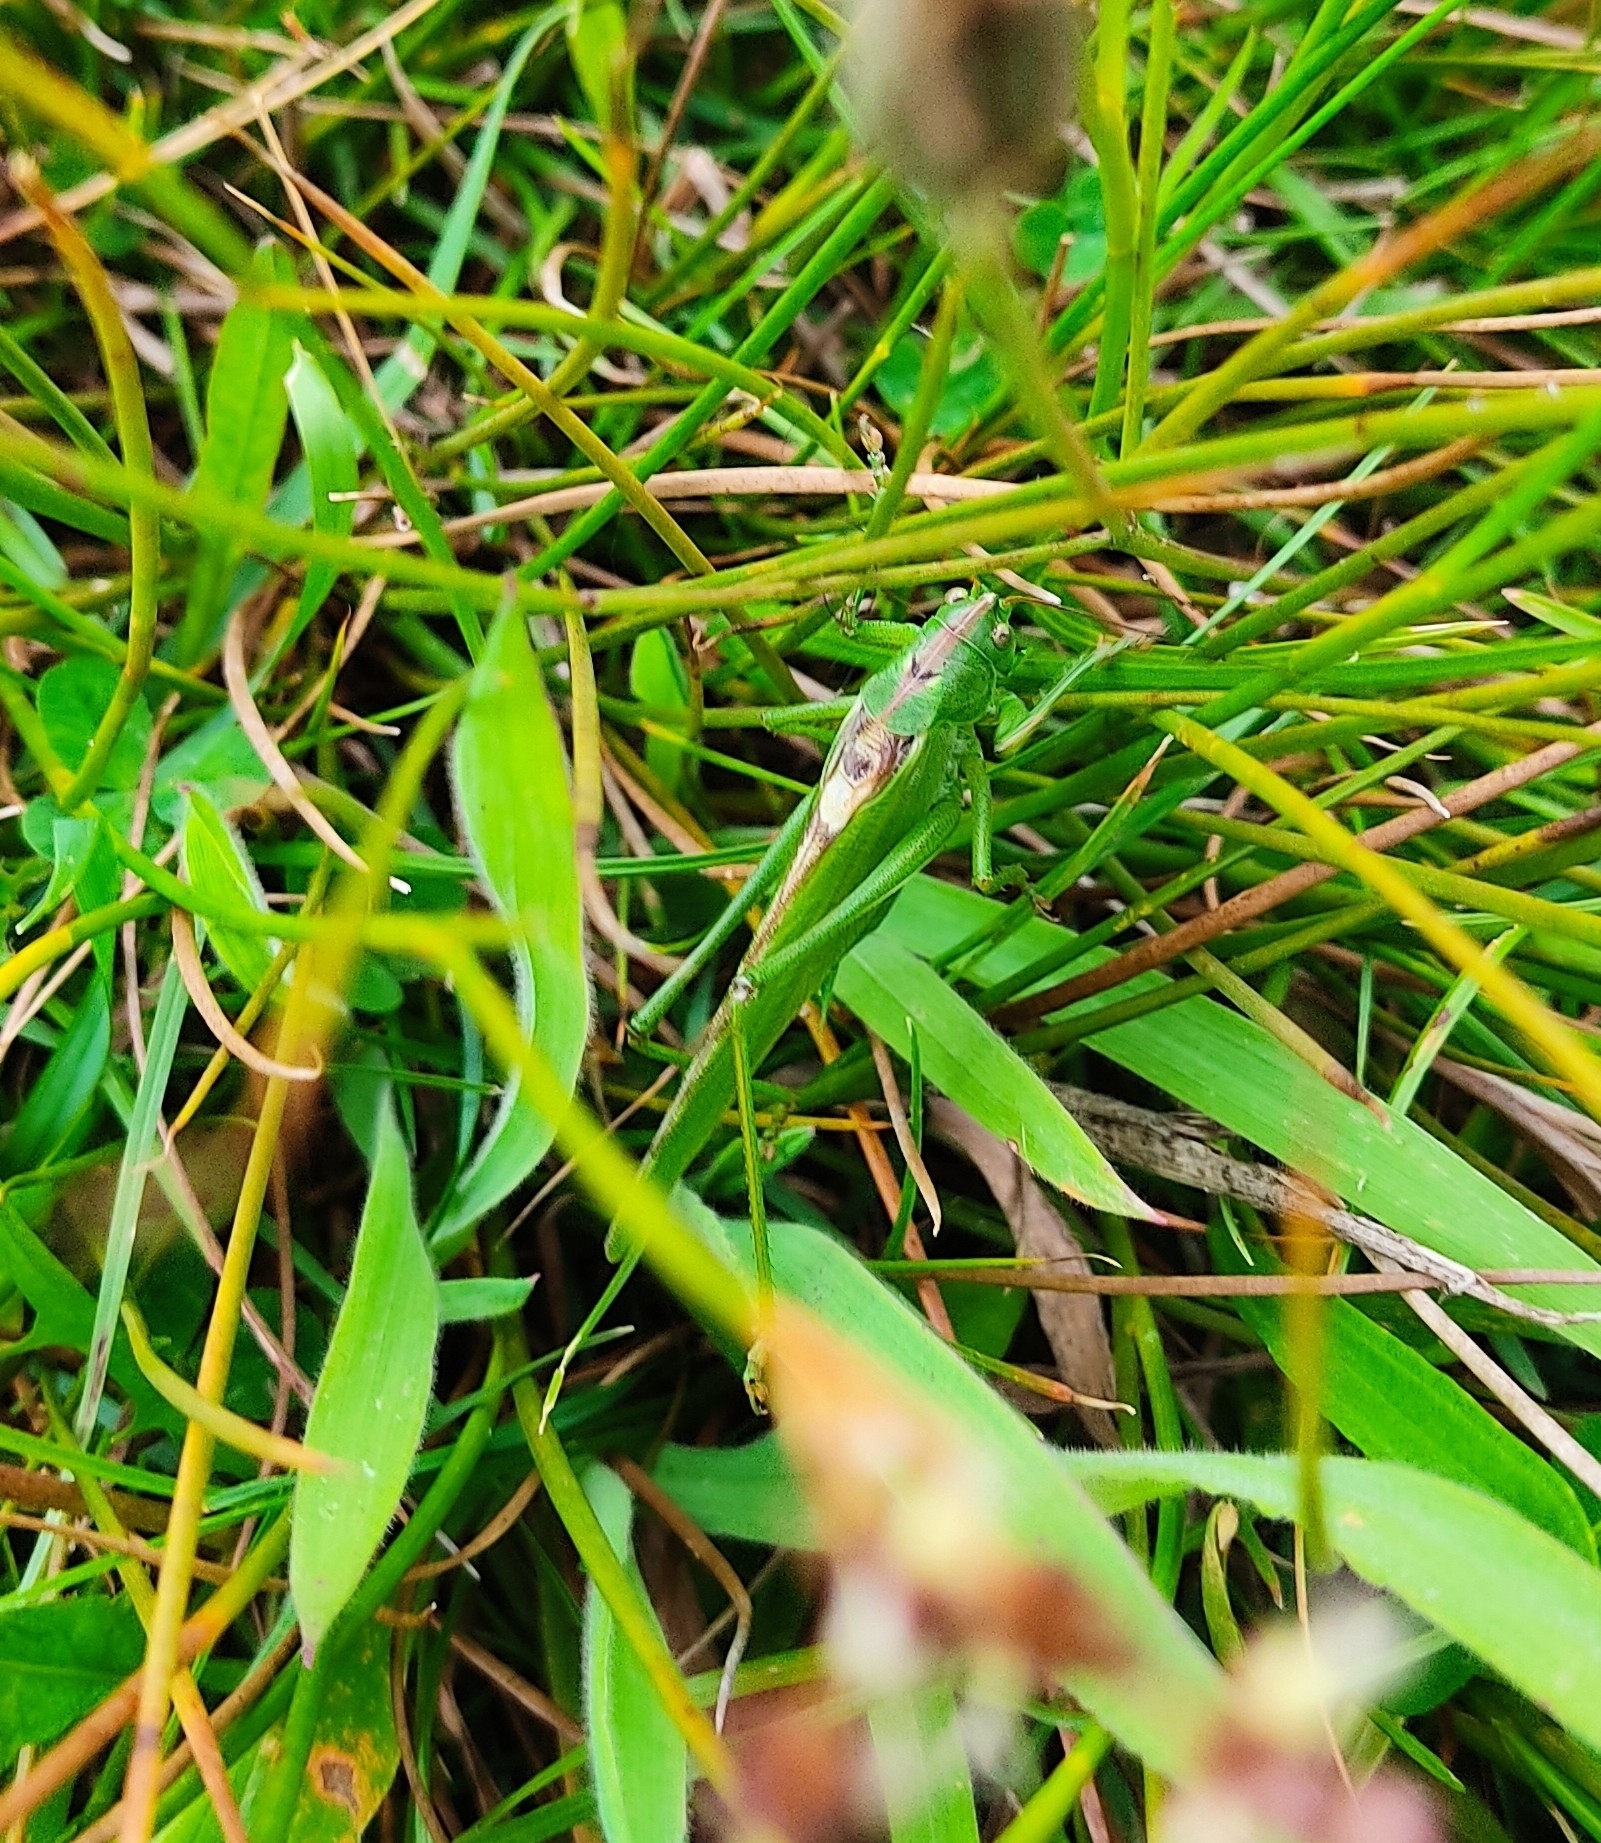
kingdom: Animalia
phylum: Arthropoda
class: Insecta
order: Orthoptera
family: Tettigoniidae
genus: Tettigonia
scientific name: Tettigonia viridissima
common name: Great green bush-cricket
